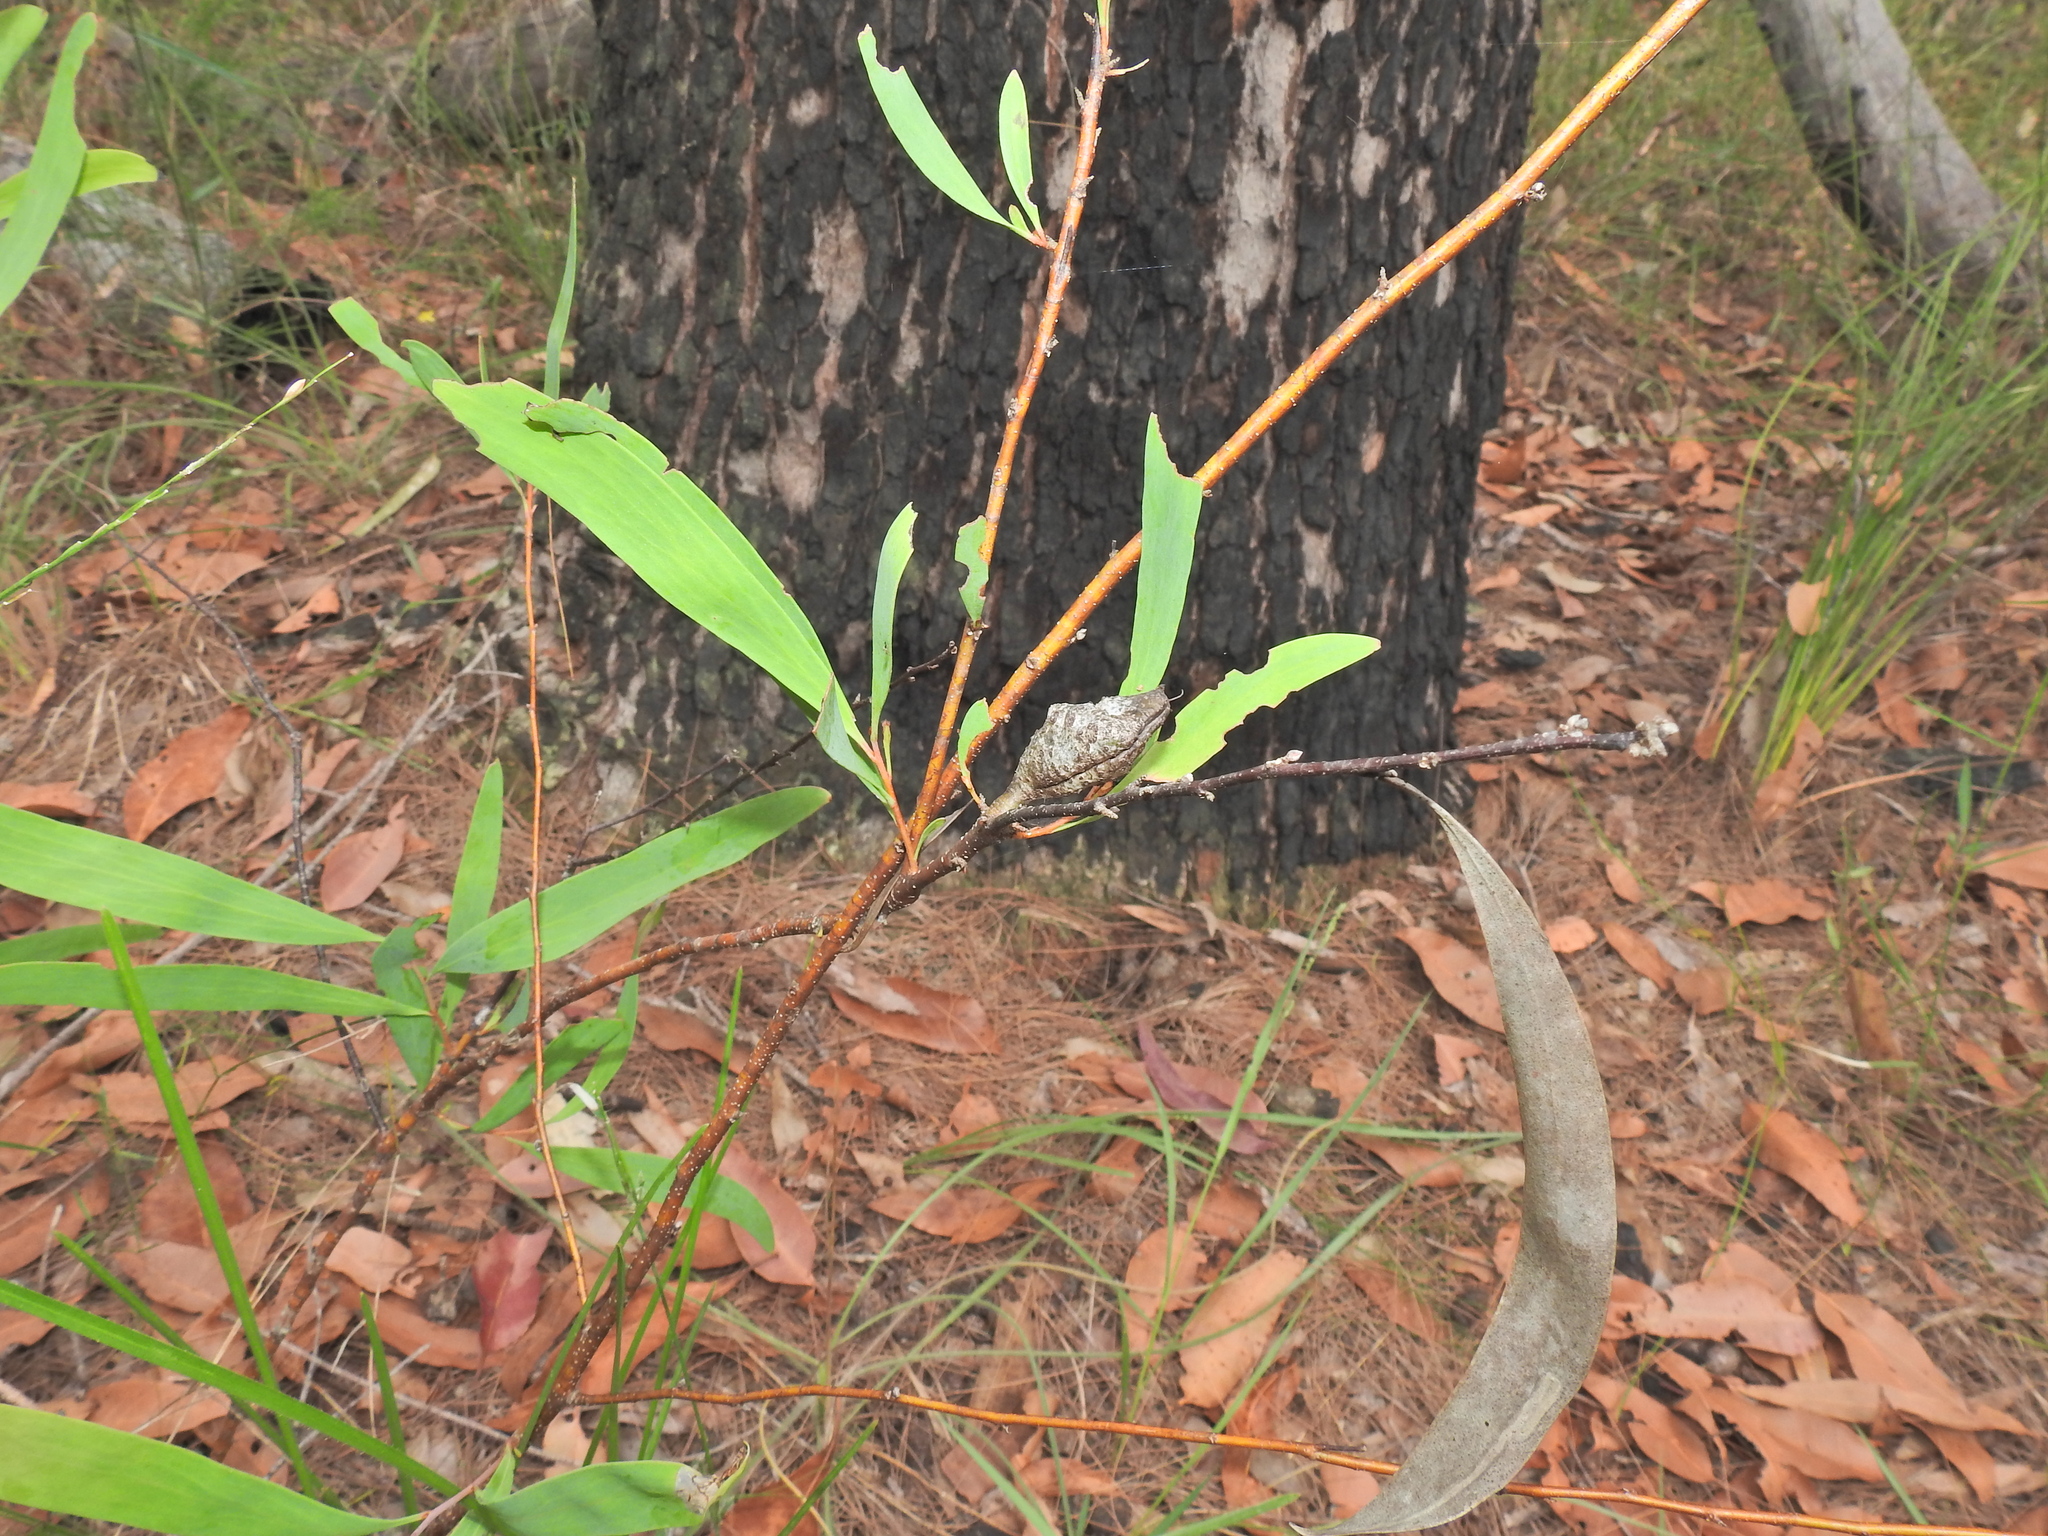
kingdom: Plantae
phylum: Tracheophyta
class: Magnoliopsida
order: Proteales
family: Proteaceae
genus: Hakea
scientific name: Hakea florulenta
